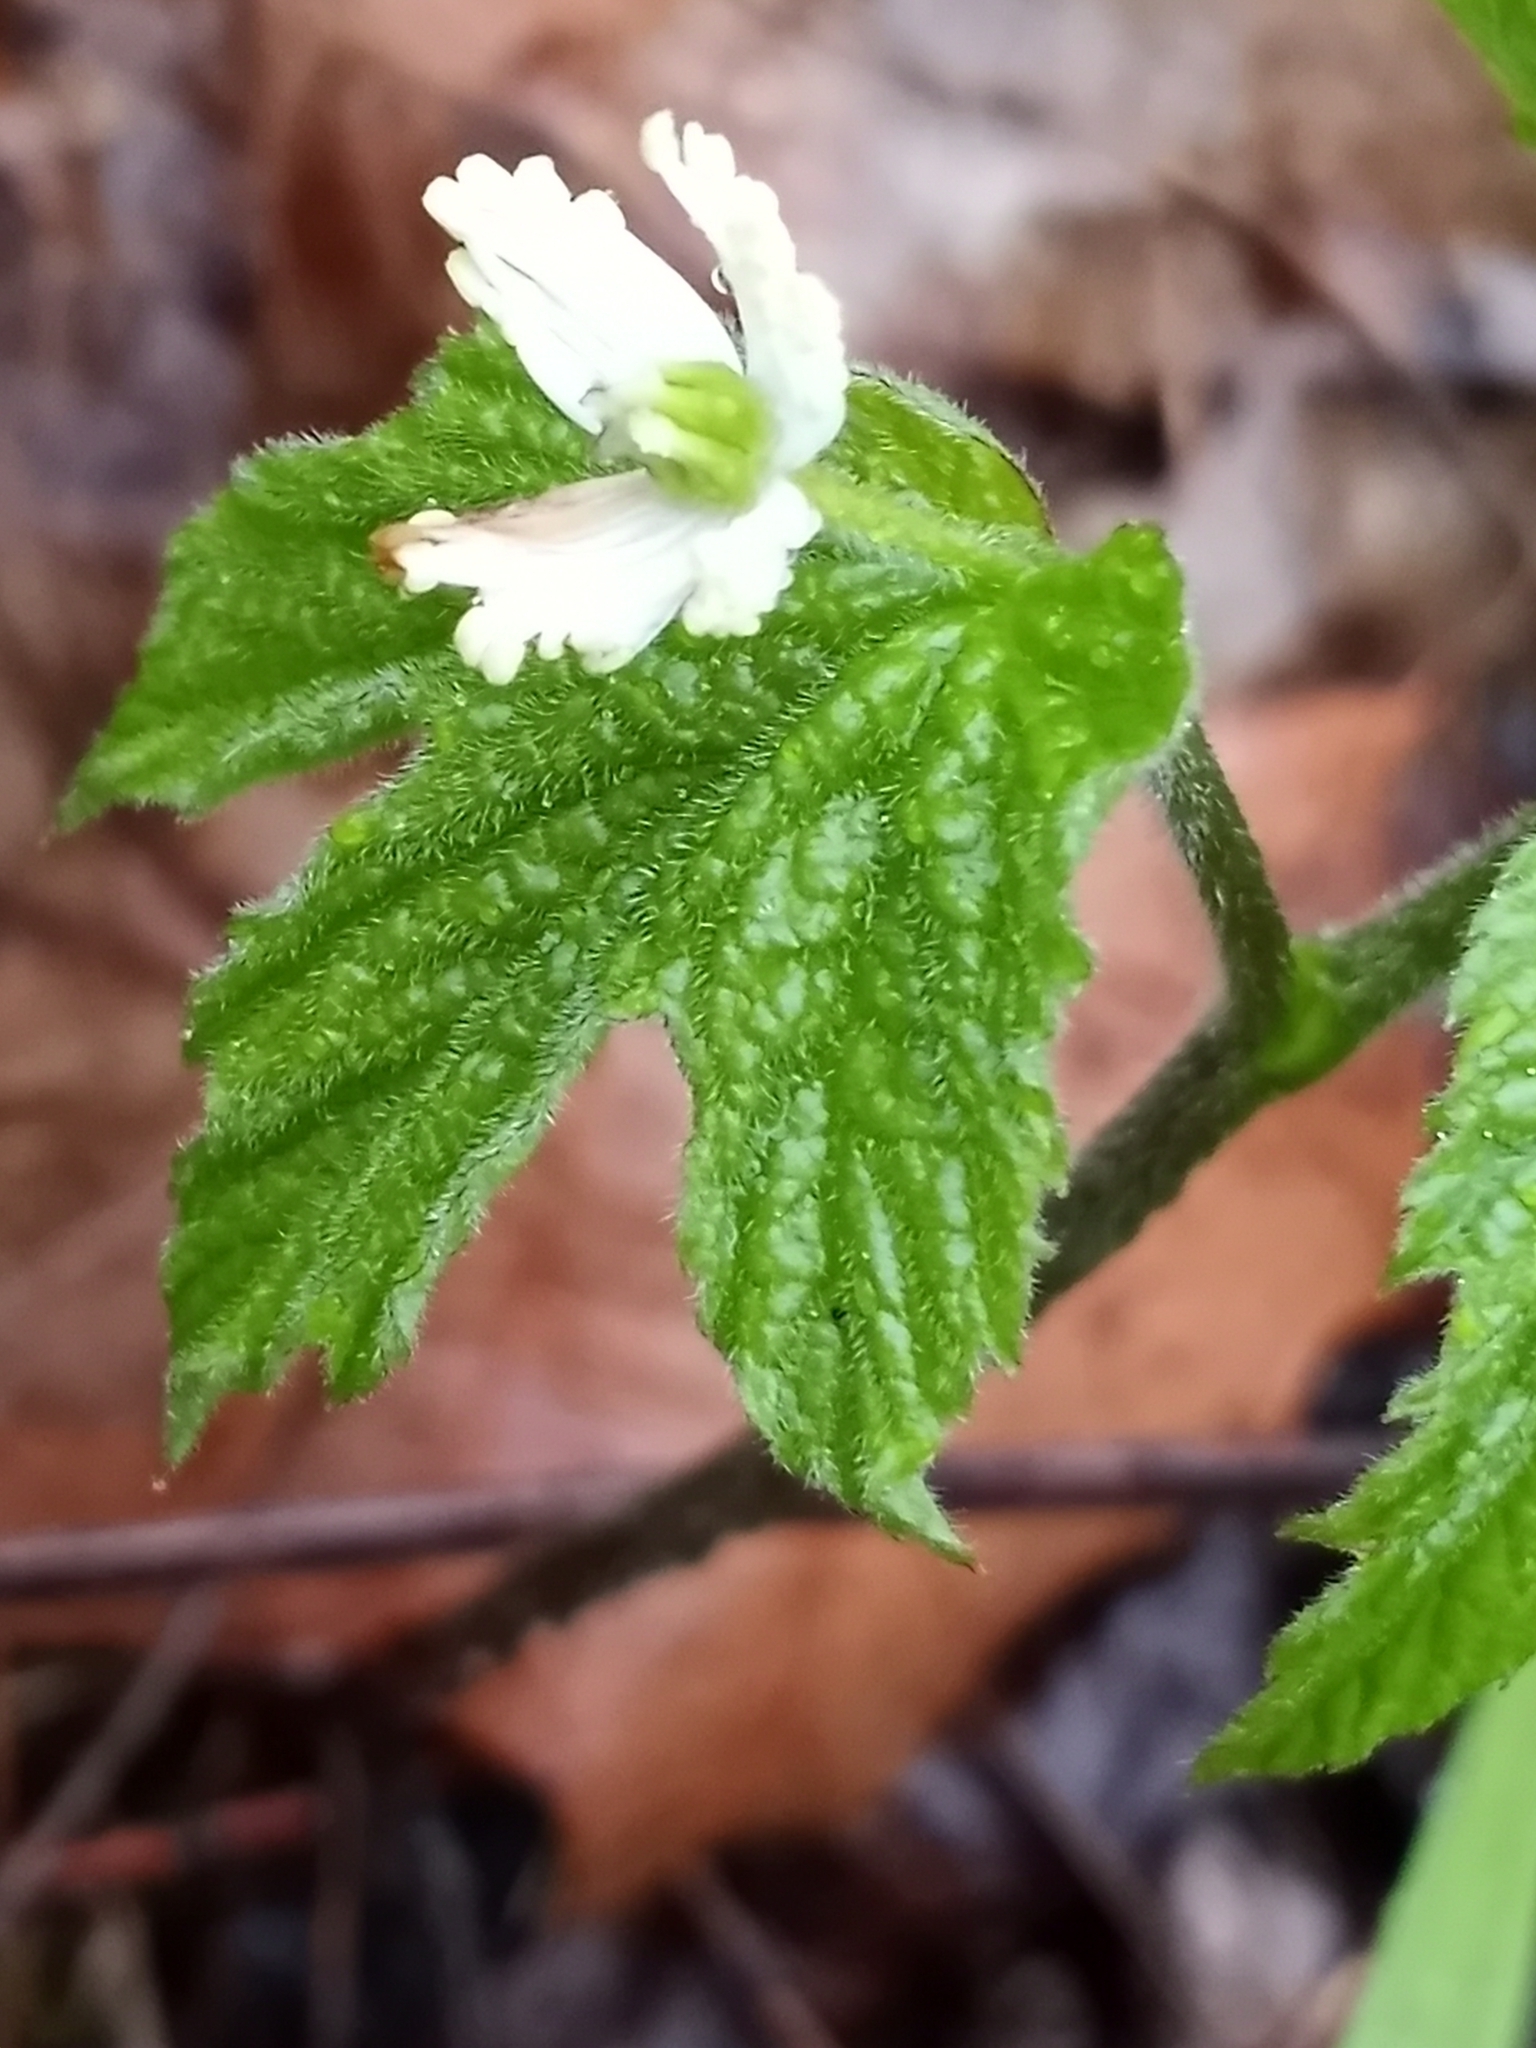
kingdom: Plantae
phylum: Tracheophyta
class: Magnoliopsida
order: Ranunculales
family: Ranunculaceae
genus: Hydrastis
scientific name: Hydrastis canadensis
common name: Goldenseal
